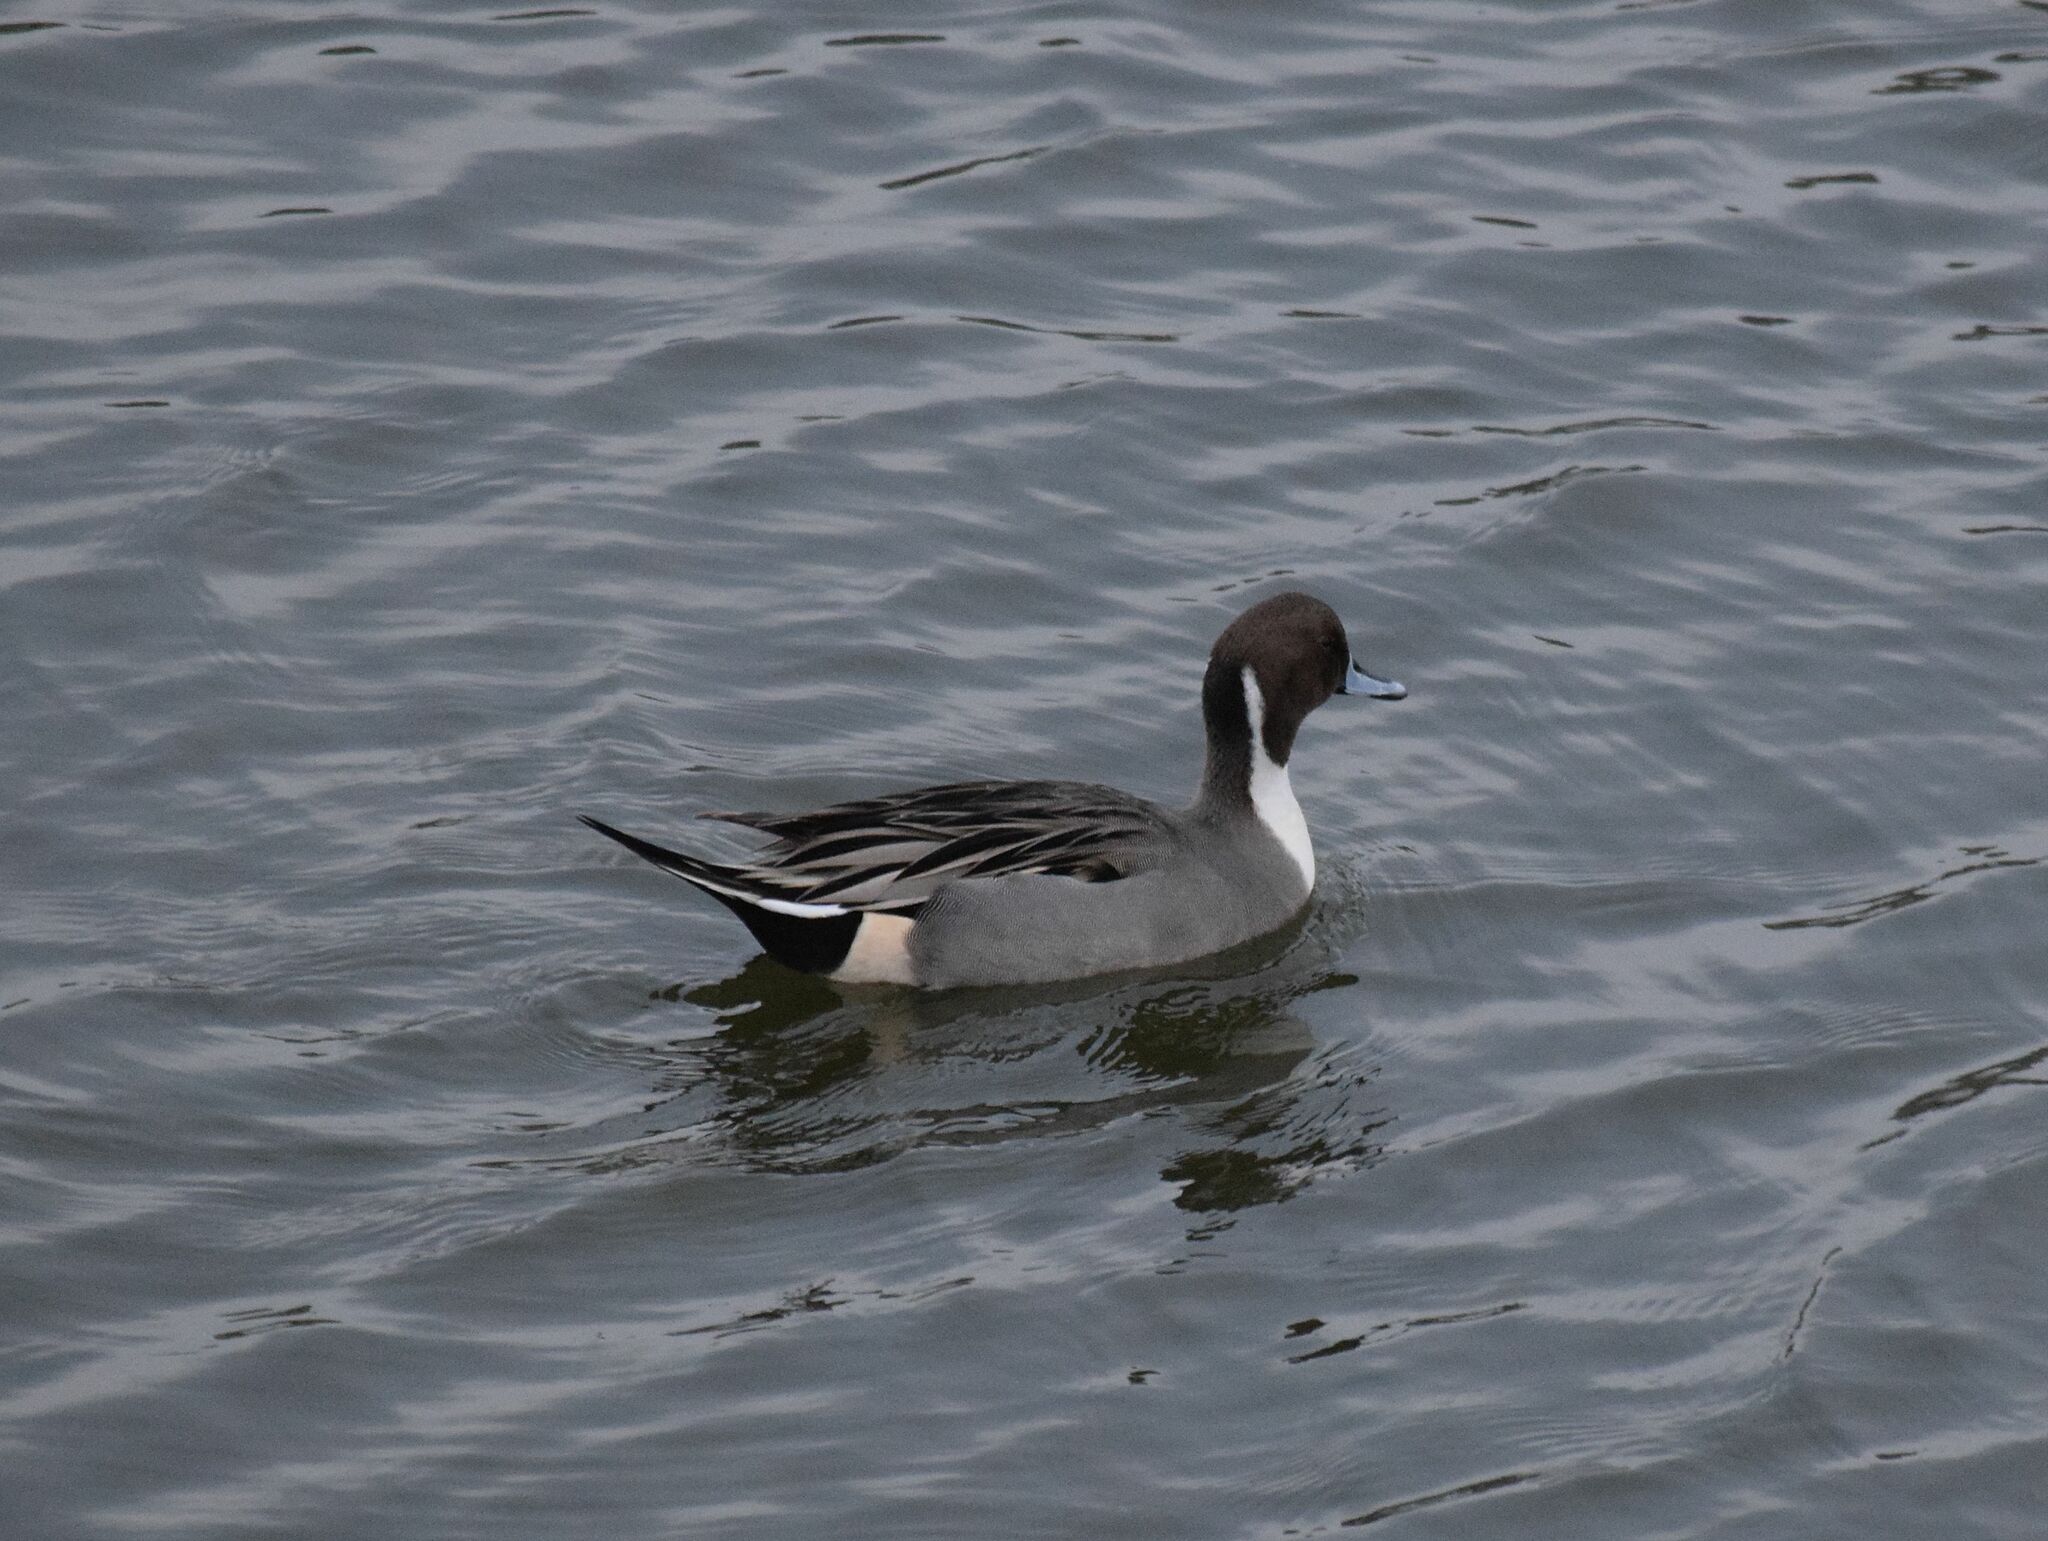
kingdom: Animalia
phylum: Chordata
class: Aves
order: Anseriformes
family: Anatidae
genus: Anas
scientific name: Anas acuta
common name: Northern pintail
